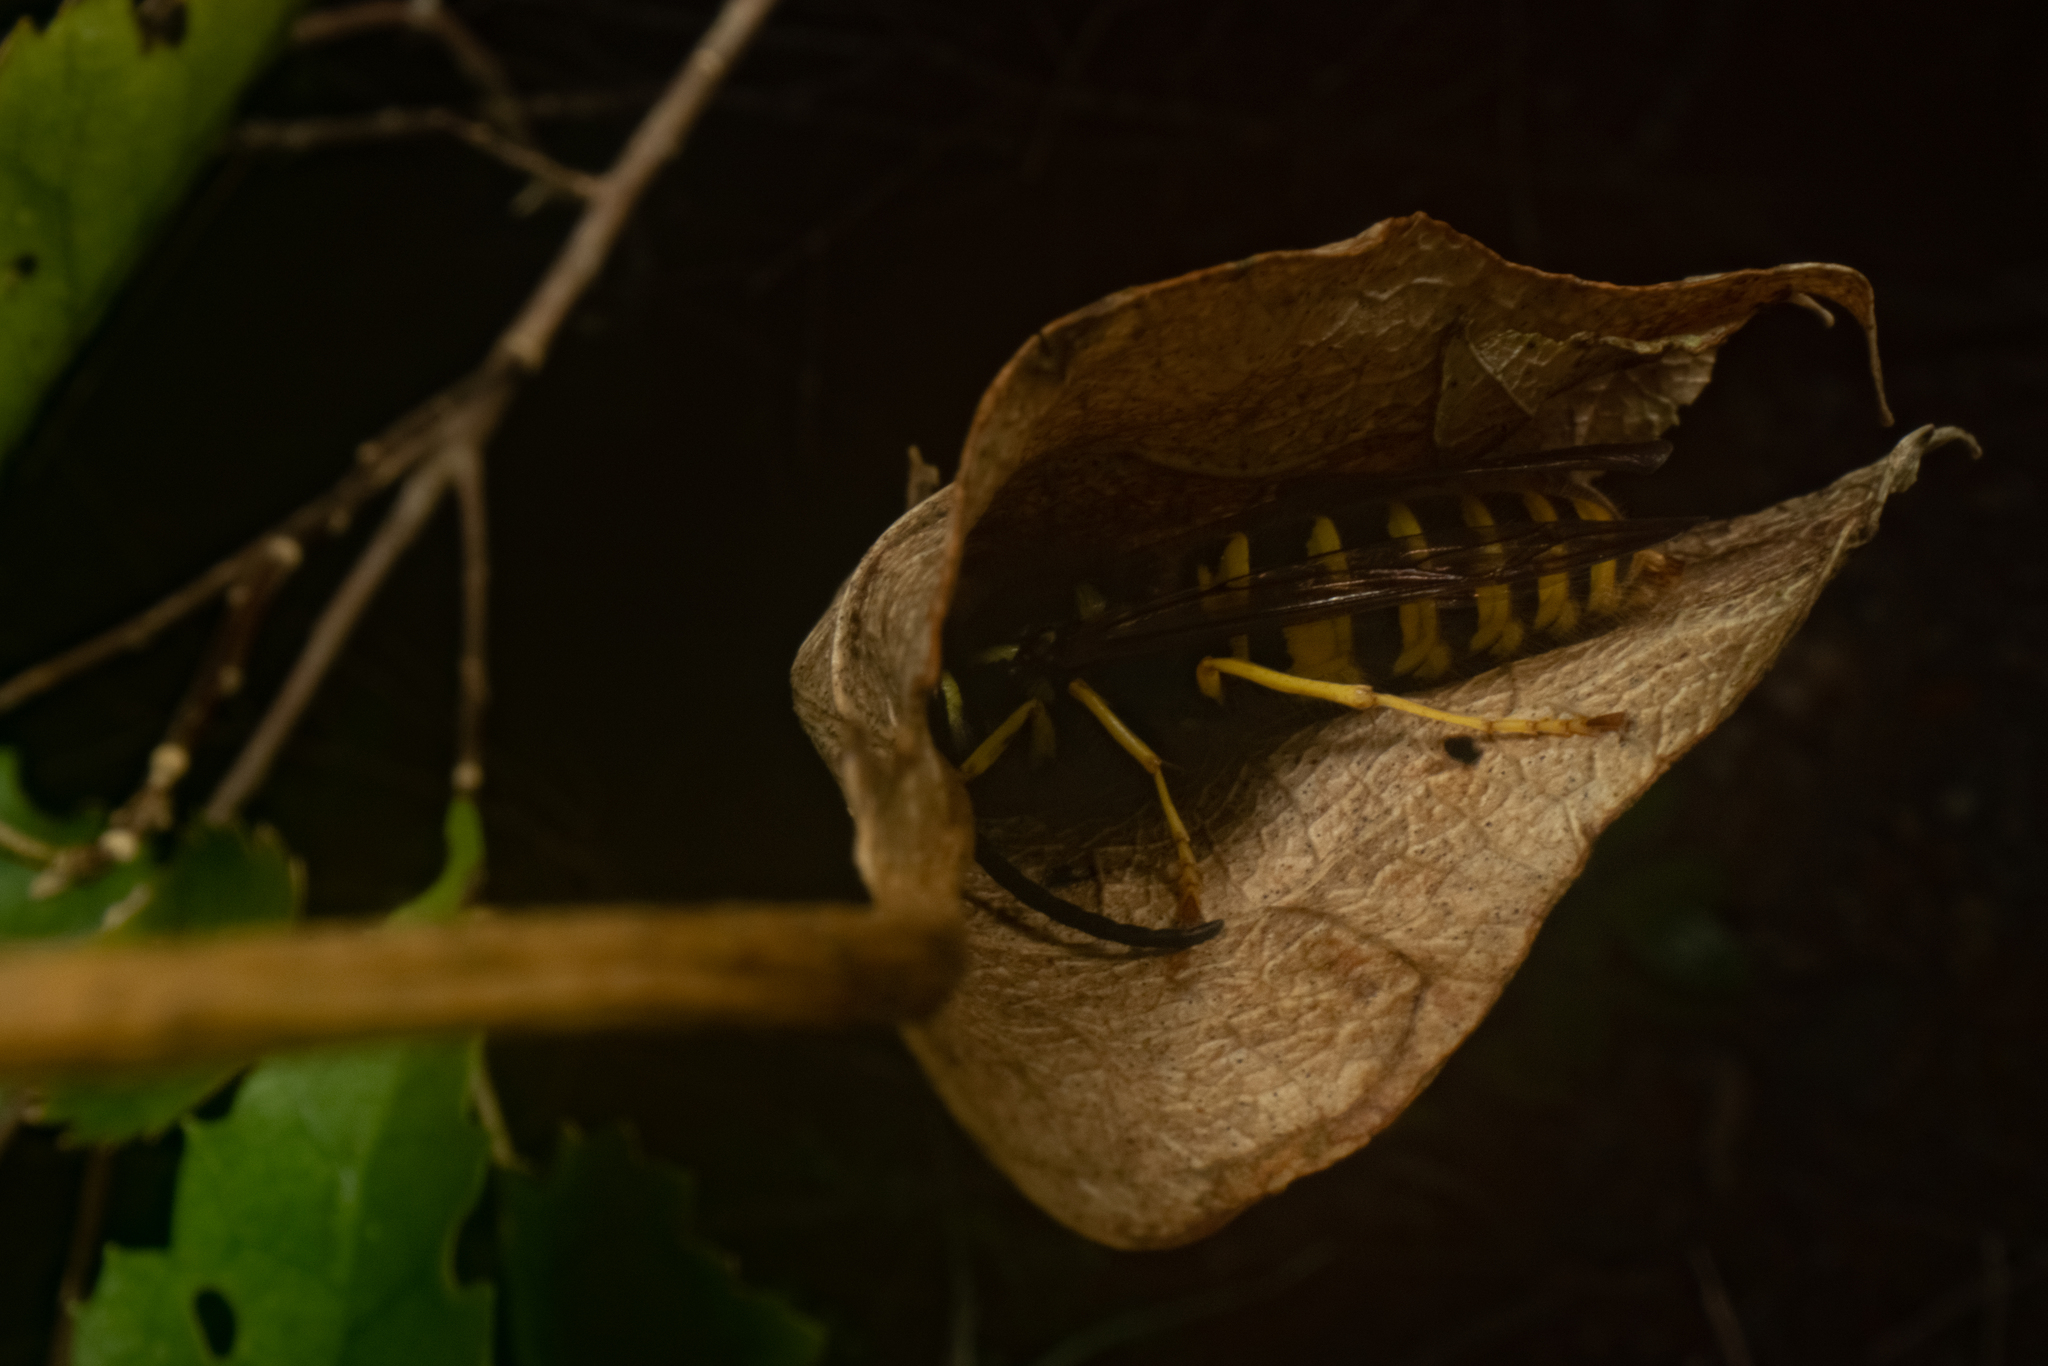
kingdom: Animalia
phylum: Arthropoda
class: Insecta
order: Hymenoptera
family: Vespidae
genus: Vespula
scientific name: Vespula
